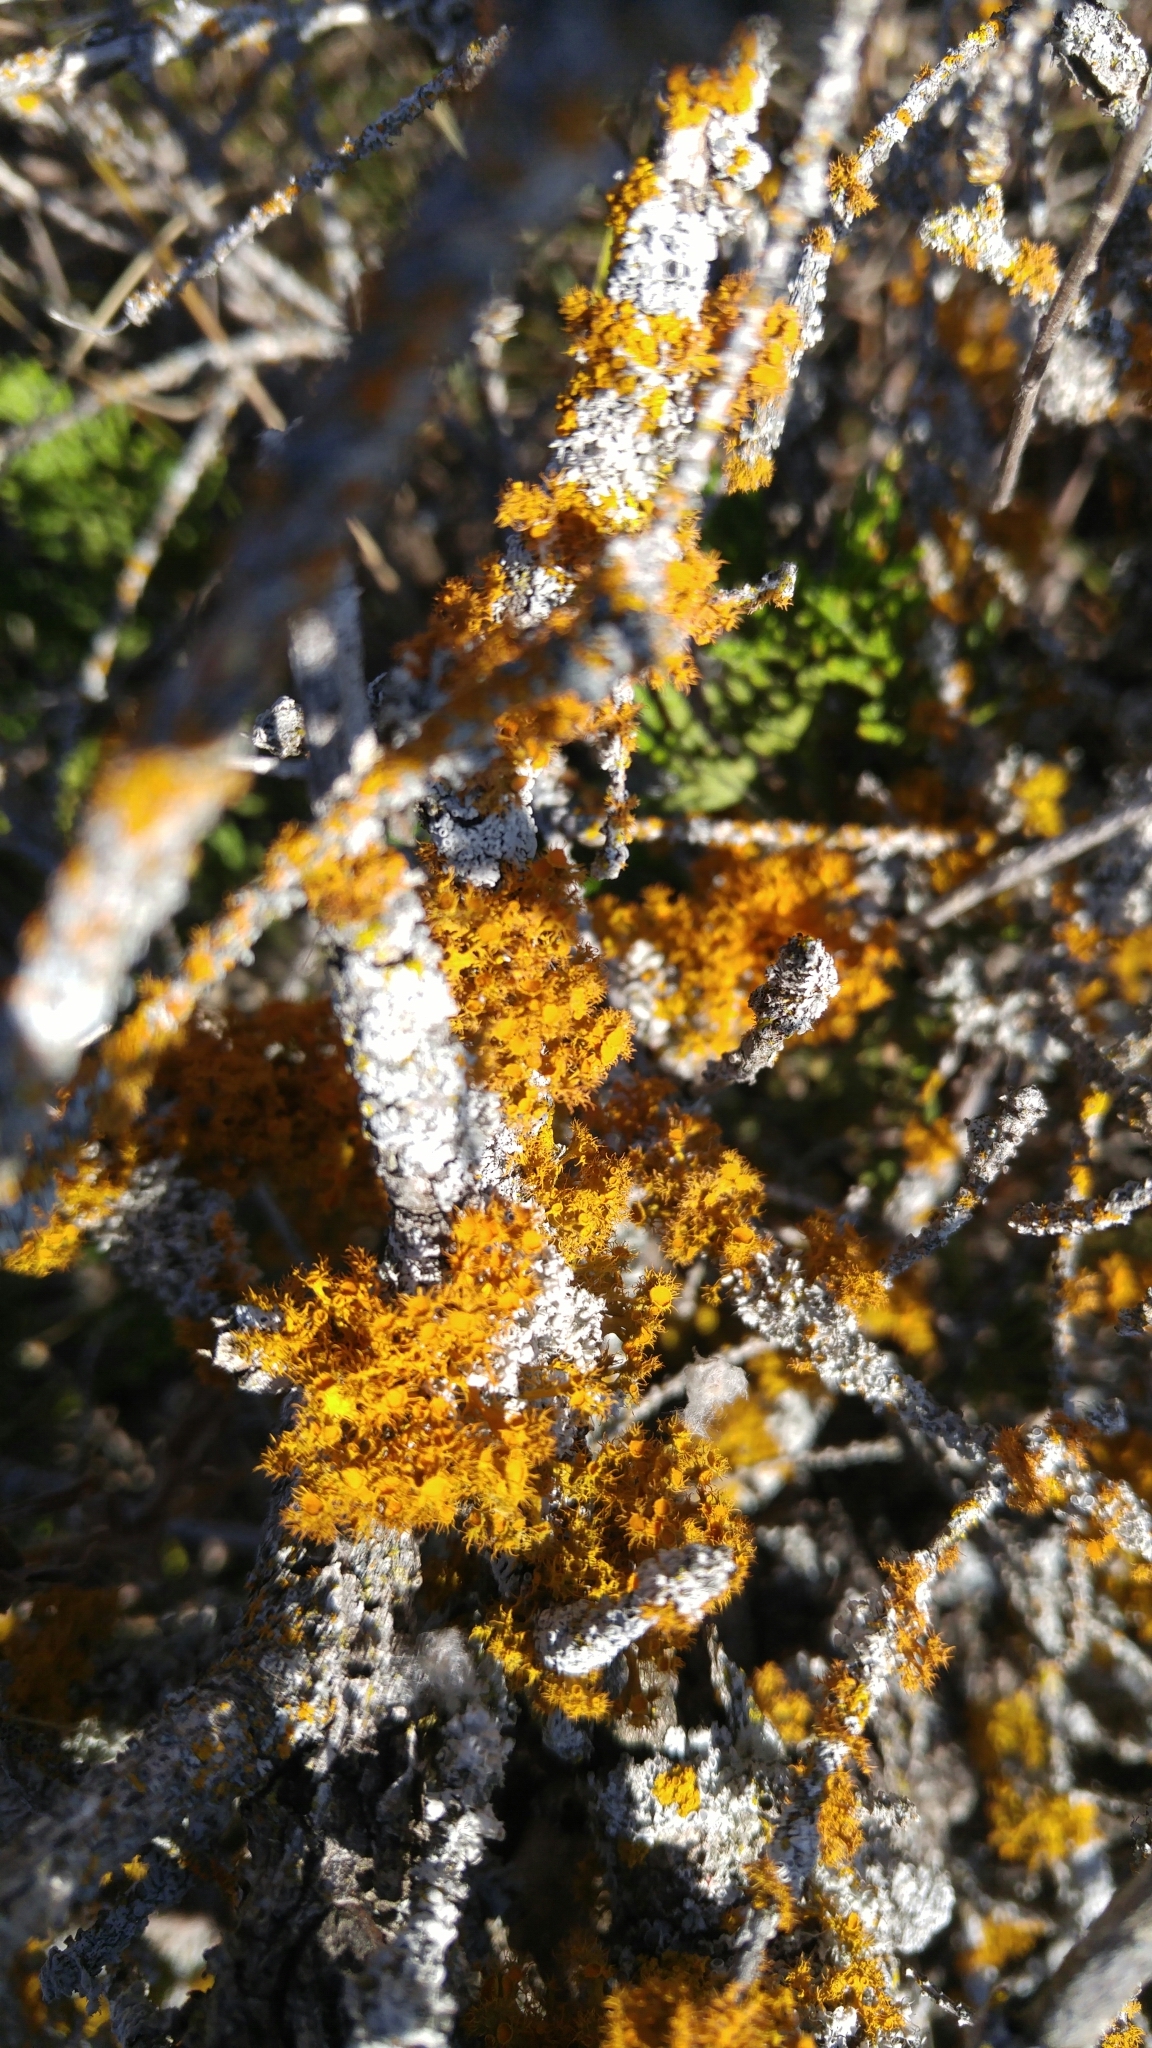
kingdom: Fungi
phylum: Ascomycota
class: Lecanoromycetes
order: Teloschistales
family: Teloschistaceae
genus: Niorma
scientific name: Niorma chrysophthalma
